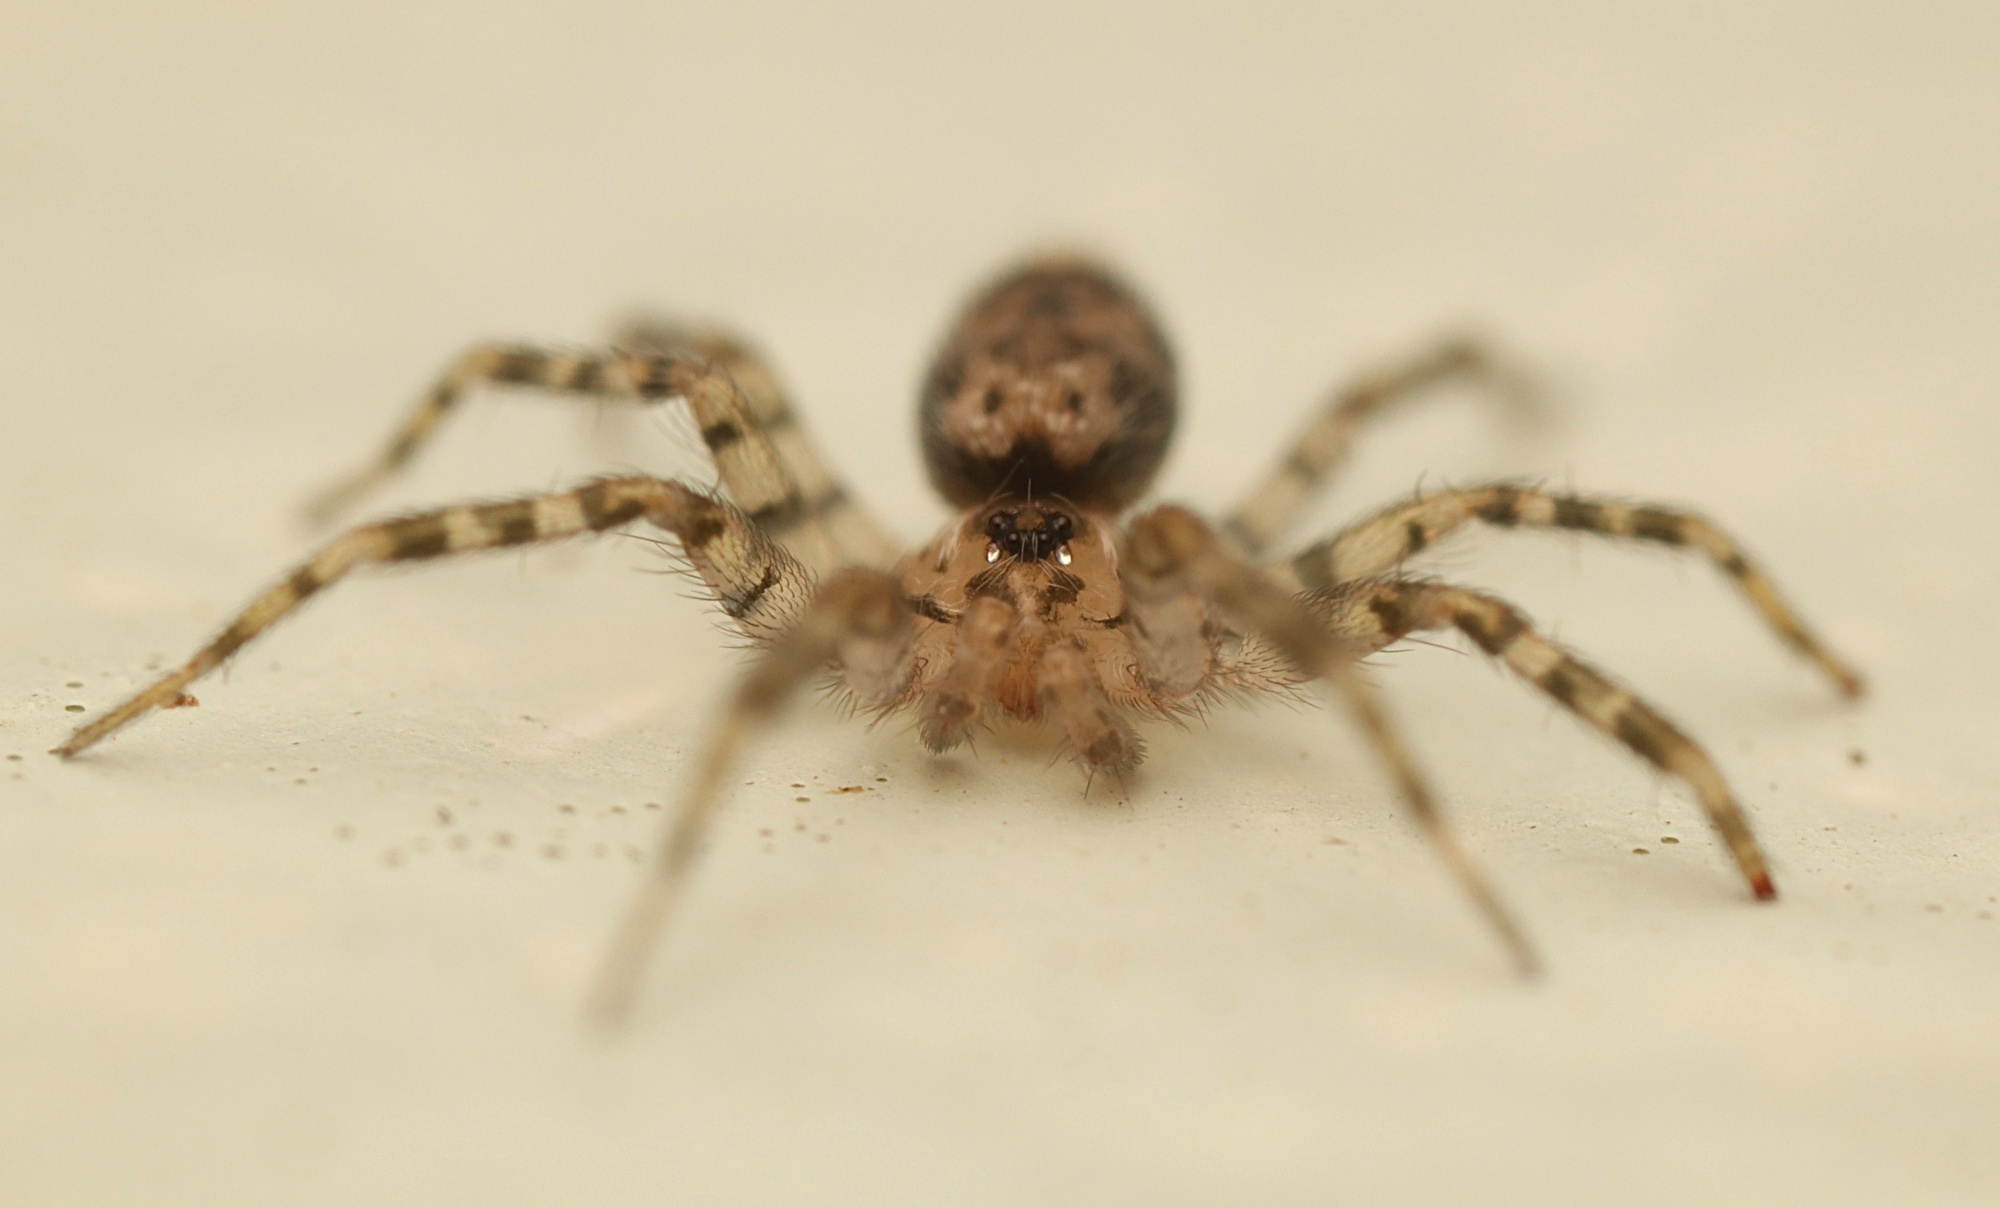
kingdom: Animalia
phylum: Arthropoda
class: Arachnida
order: Araneae
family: Oecobiidae
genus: Oecobius
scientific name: Oecobius navus
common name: Flatmesh weaver
